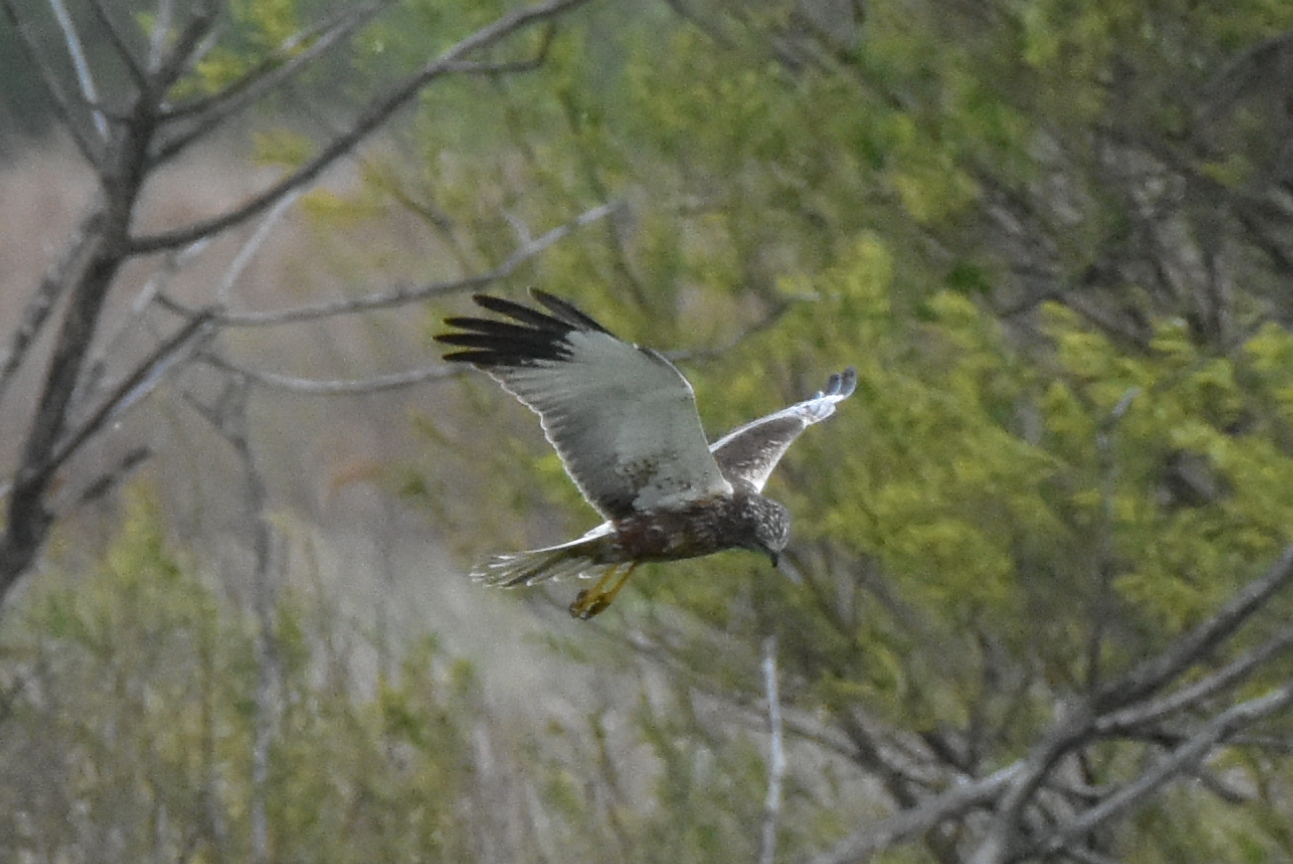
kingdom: Animalia
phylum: Chordata
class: Aves
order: Accipitriformes
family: Accipitridae
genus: Circus
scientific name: Circus aeruginosus
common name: Western marsh harrier
